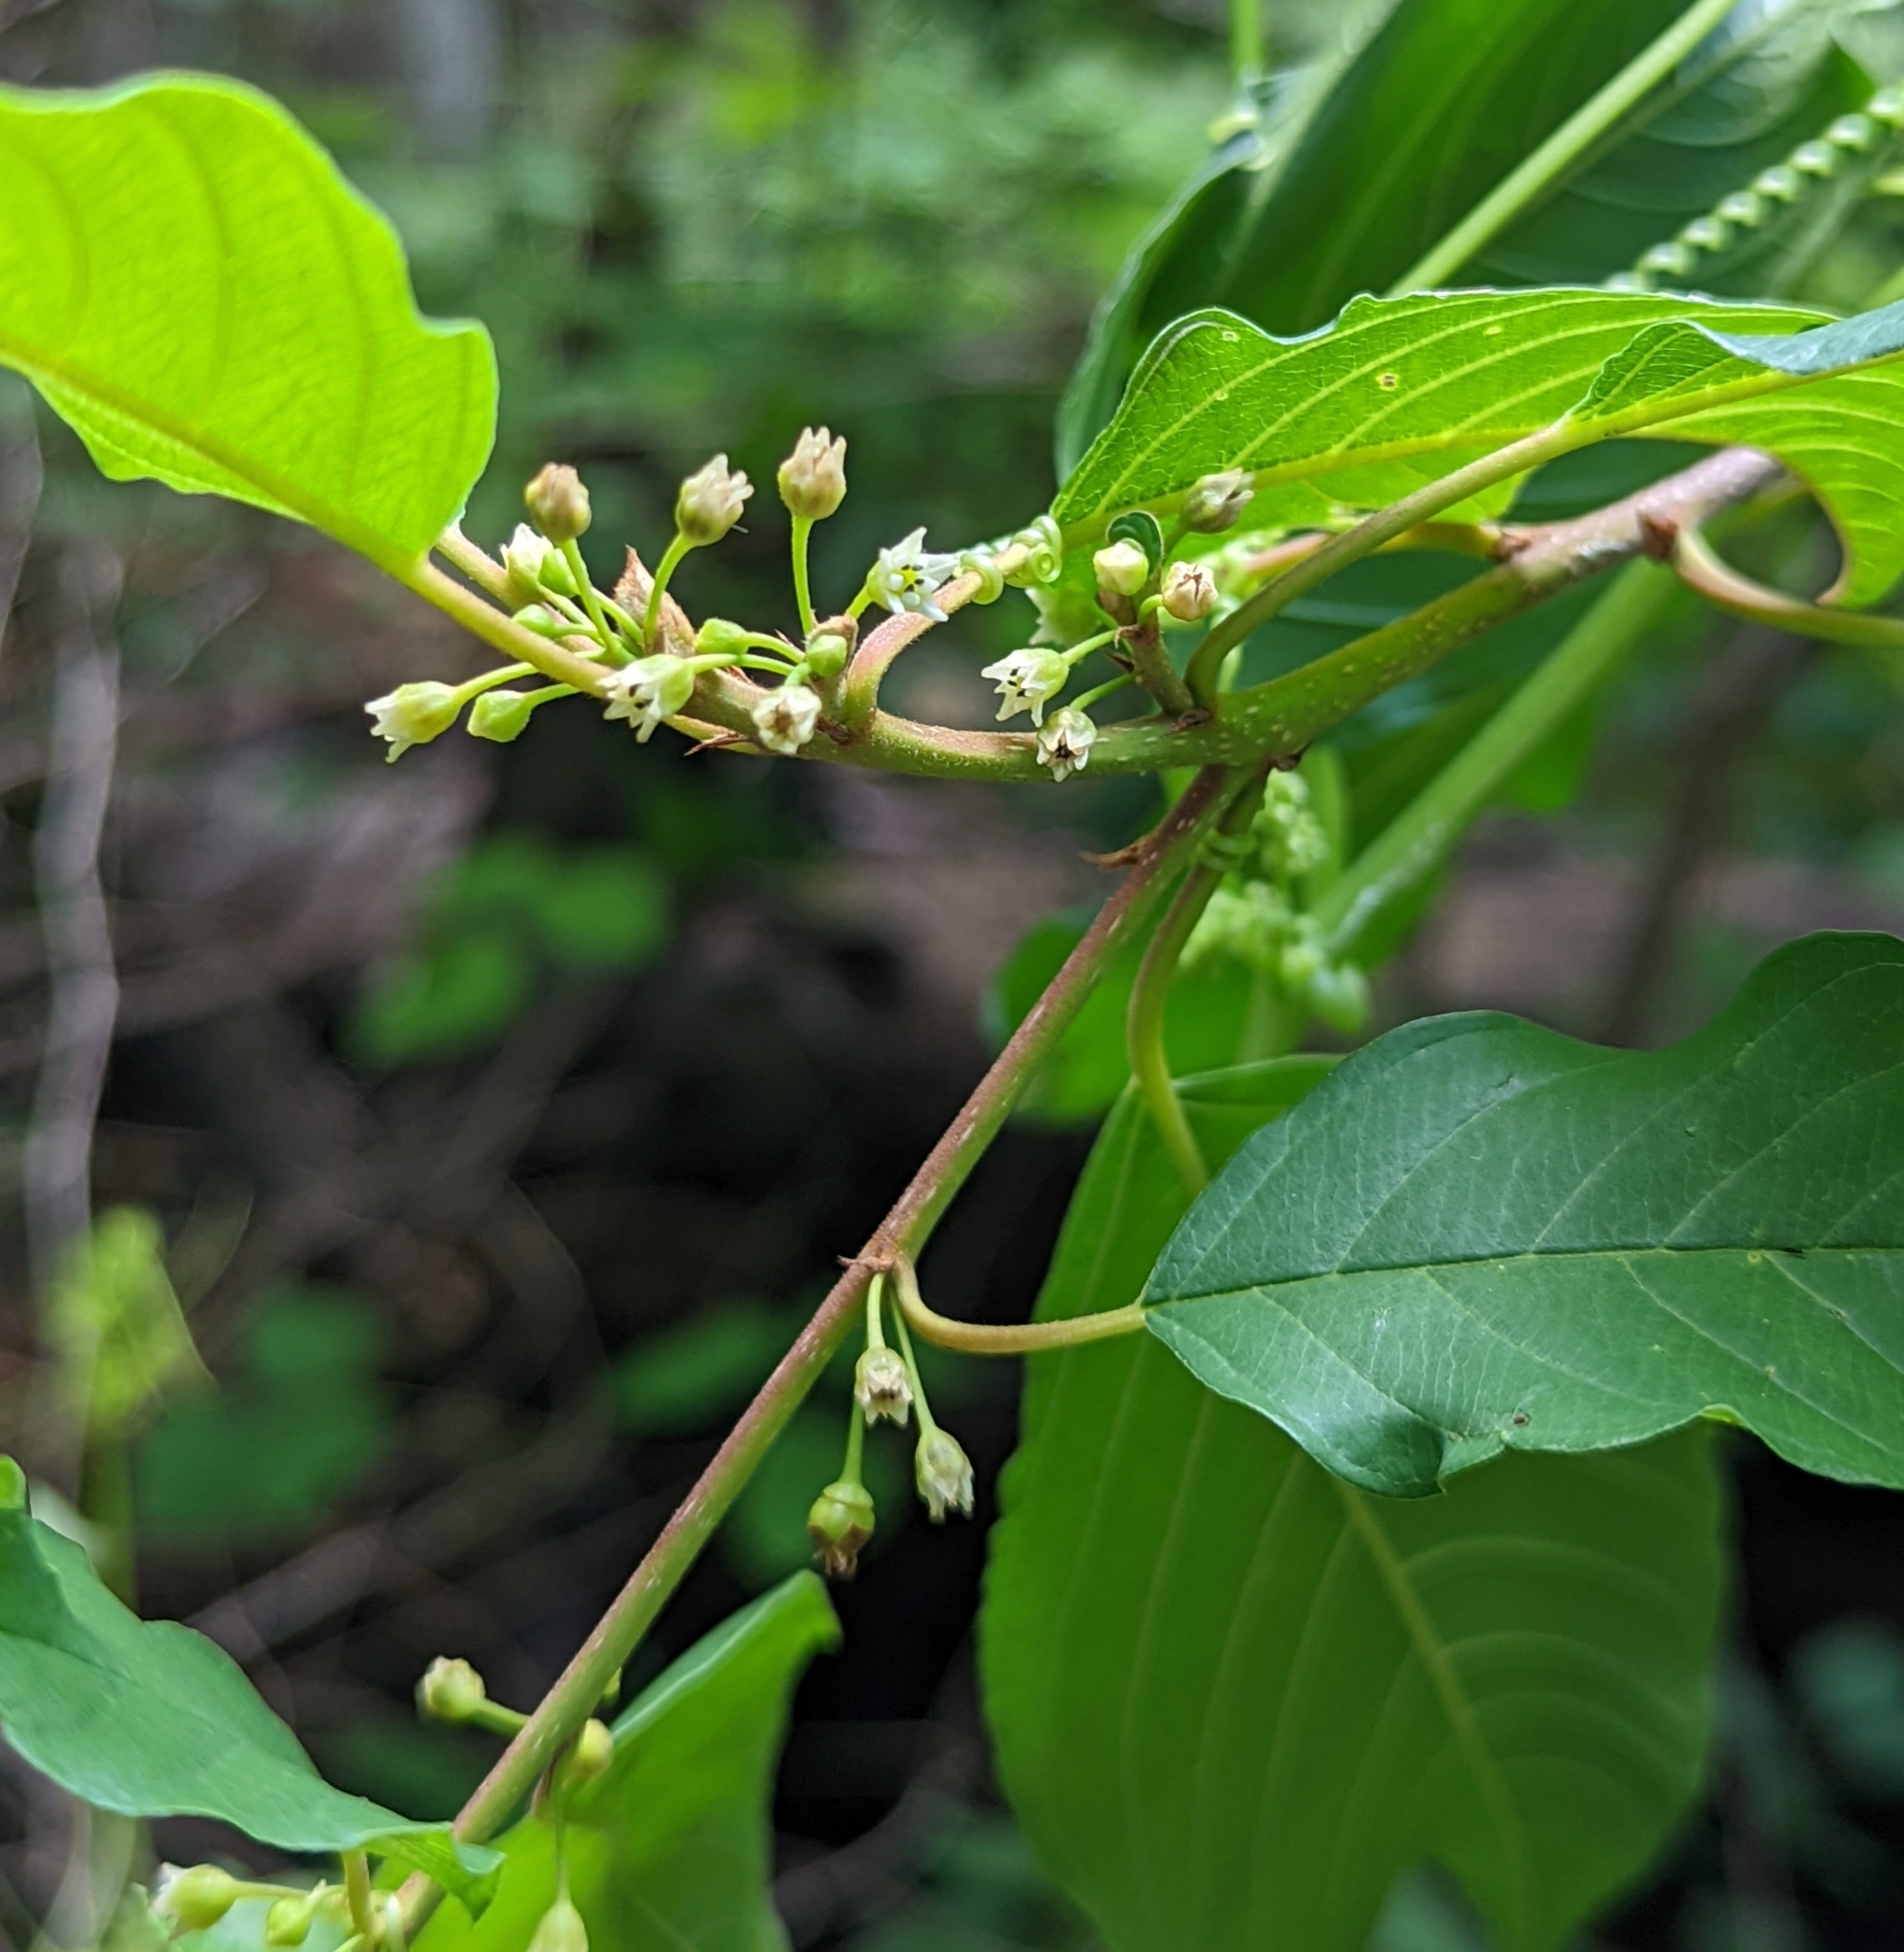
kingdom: Plantae
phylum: Tracheophyta
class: Magnoliopsida
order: Rosales
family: Rhamnaceae
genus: Frangula
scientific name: Frangula alnus
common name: Alder buckthorn
